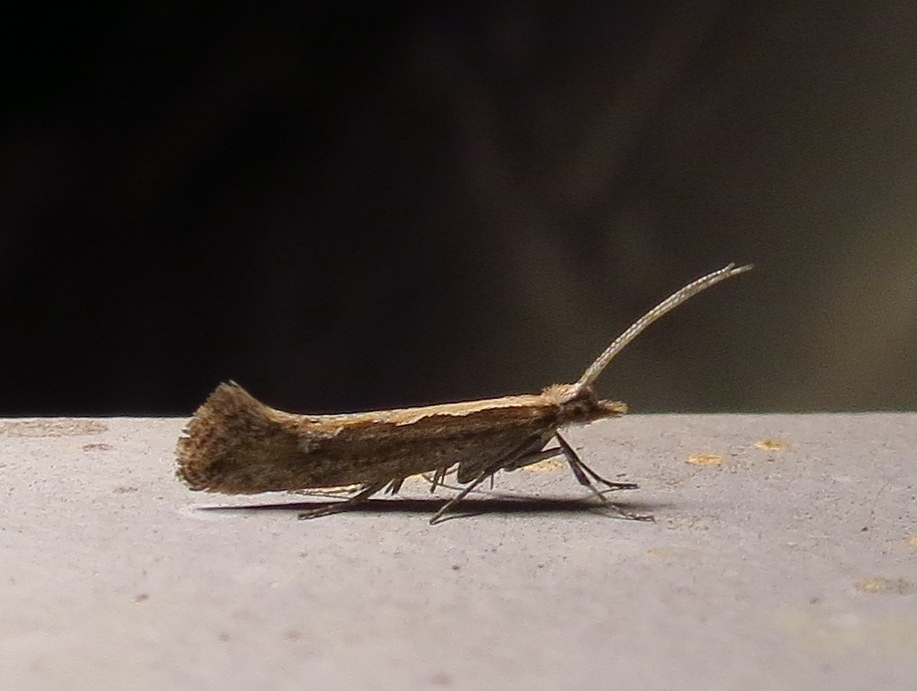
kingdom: Animalia
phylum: Arthropoda
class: Insecta
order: Lepidoptera
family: Plutellidae
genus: Plutella
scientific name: Plutella xylostella
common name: Diamond-back moth
